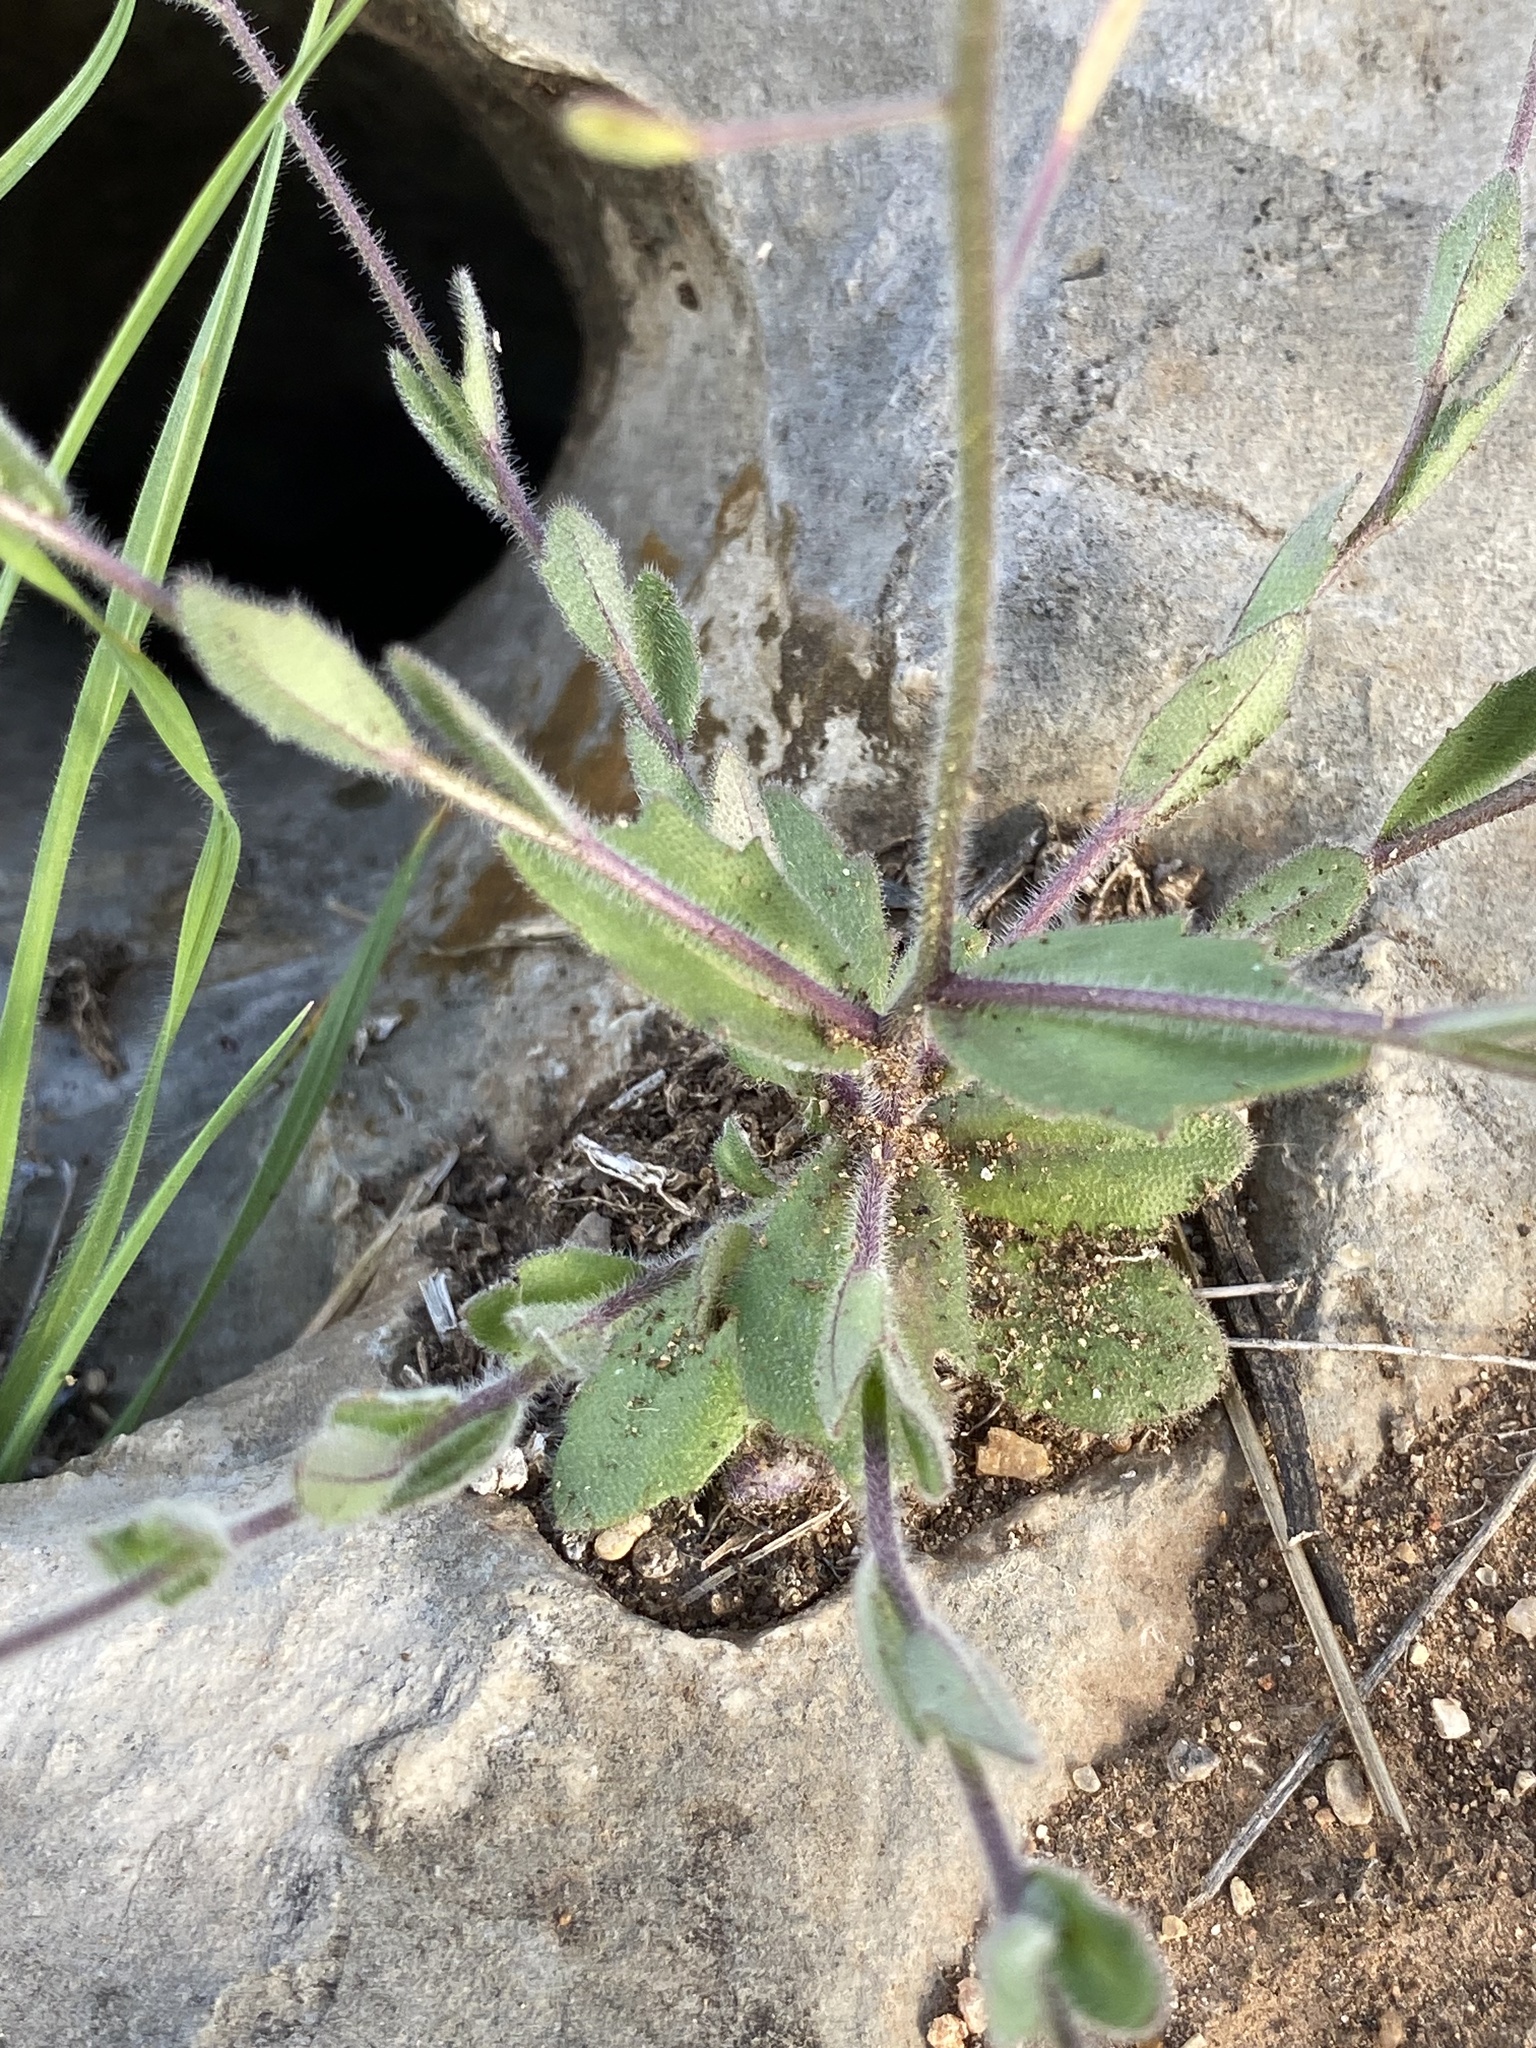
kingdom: Plantae
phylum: Tracheophyta
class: Magnoliopsida
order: Brassicales
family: Brassicaceae
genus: Tomostima
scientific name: Tomostima platycarpa
